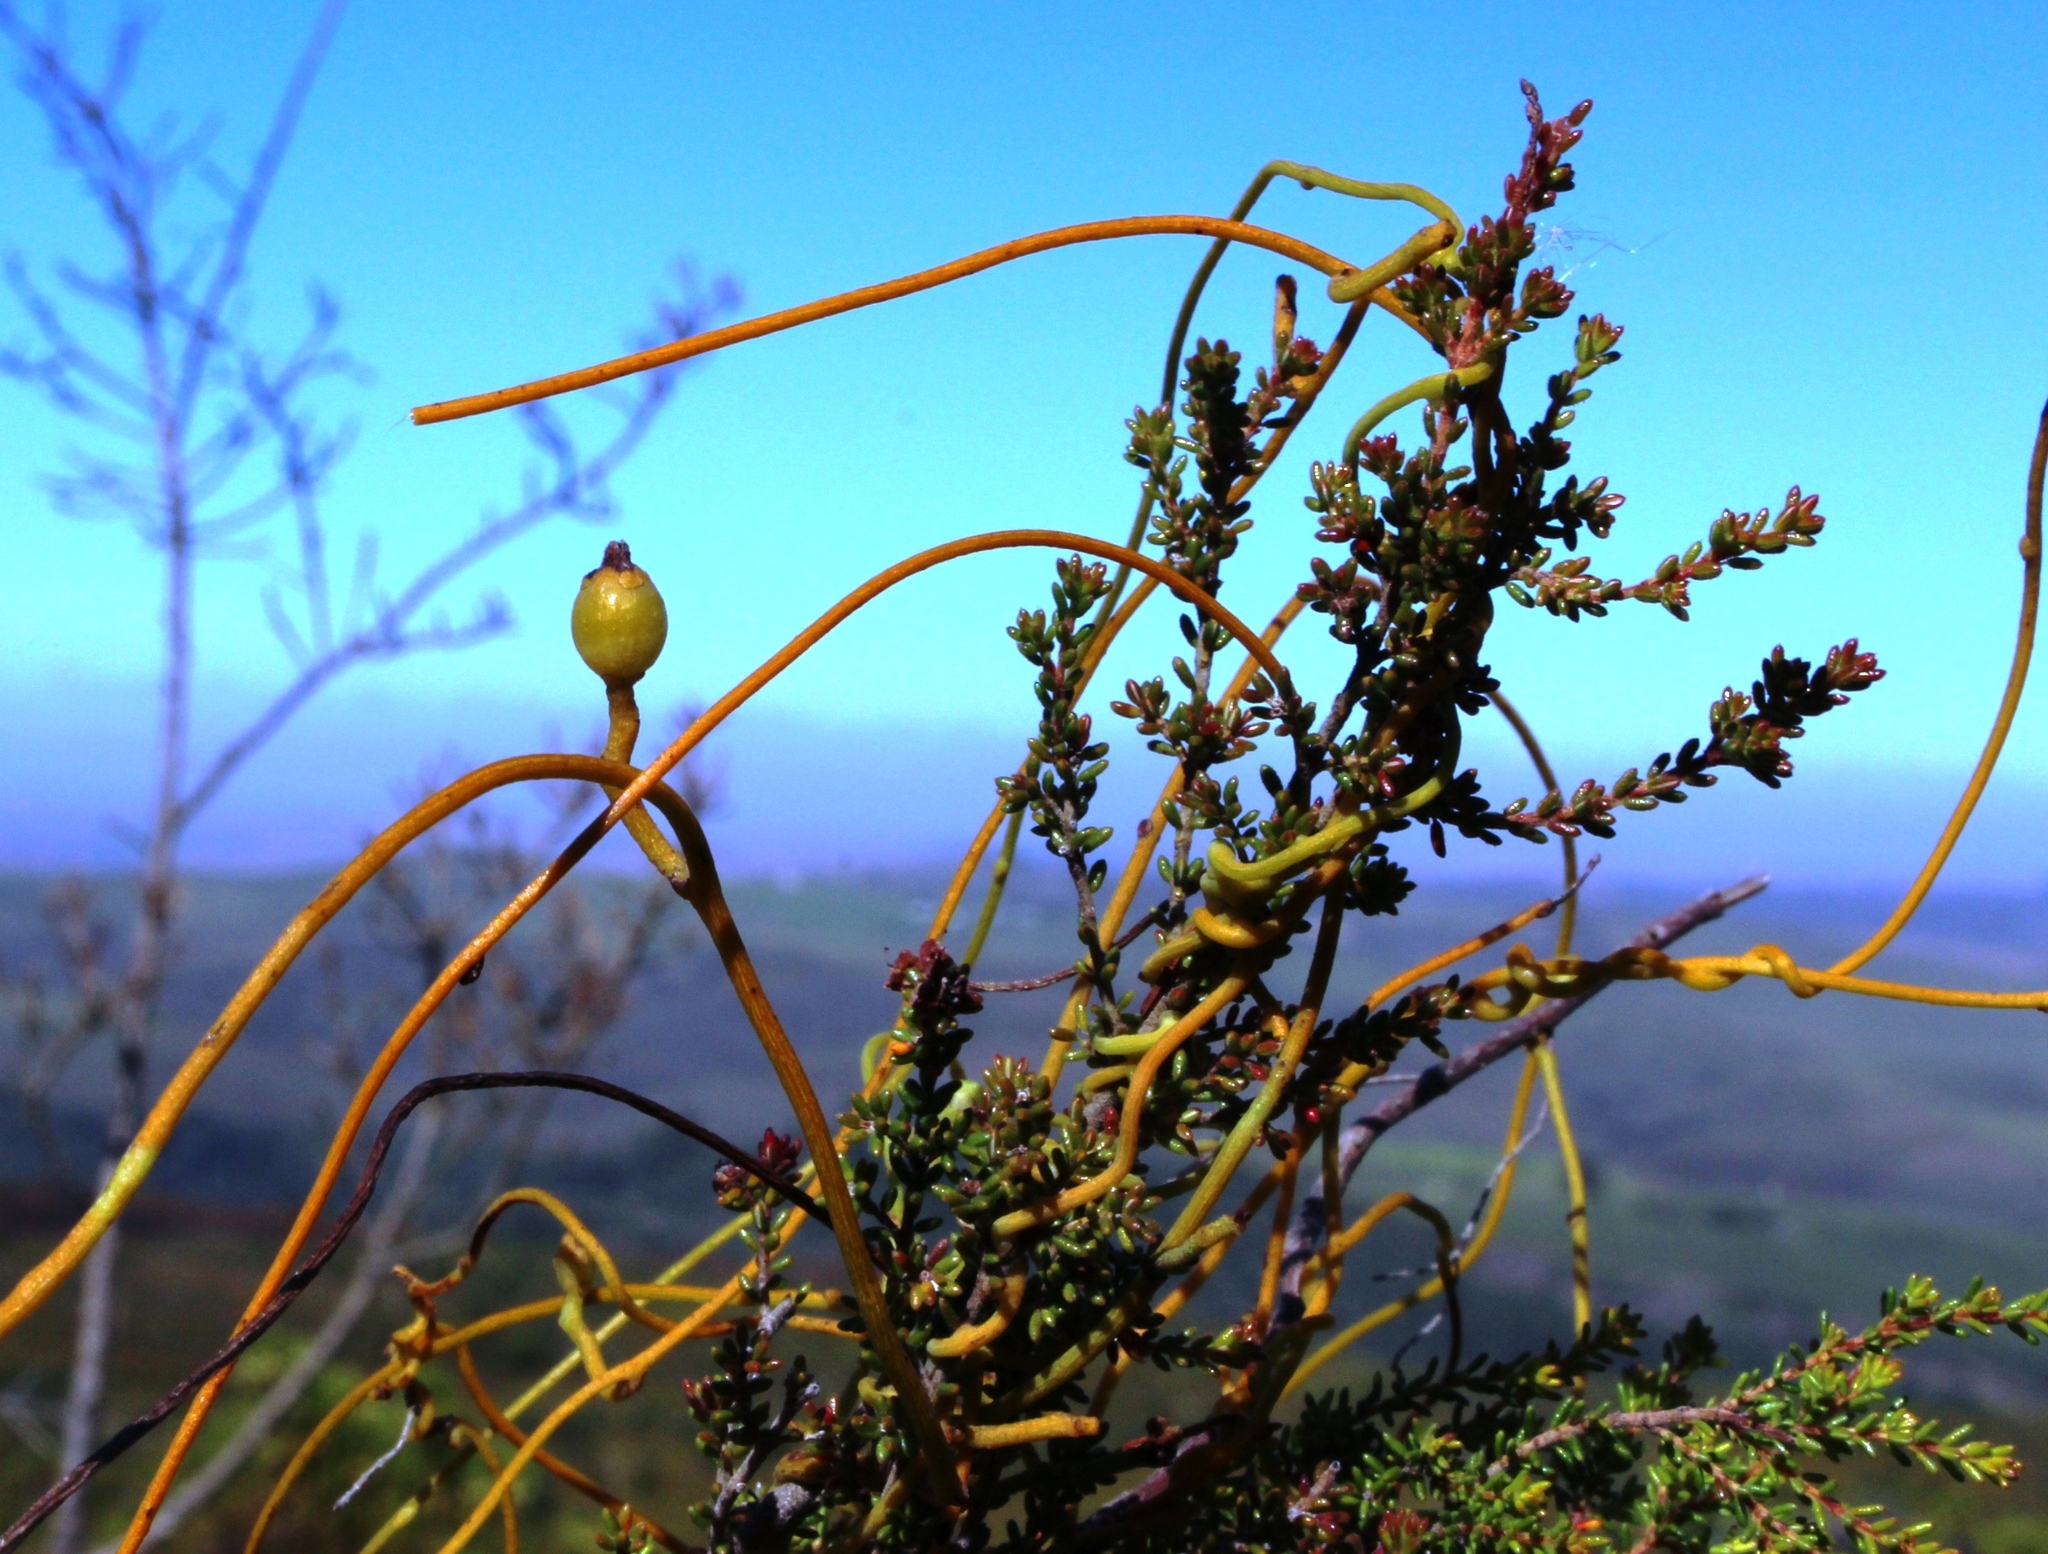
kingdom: Plantae
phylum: Tracheophyta
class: Magnoliopsida
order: Laurales
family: Lauraceae
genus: Cassytha
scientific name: Cassytha ciliolata
